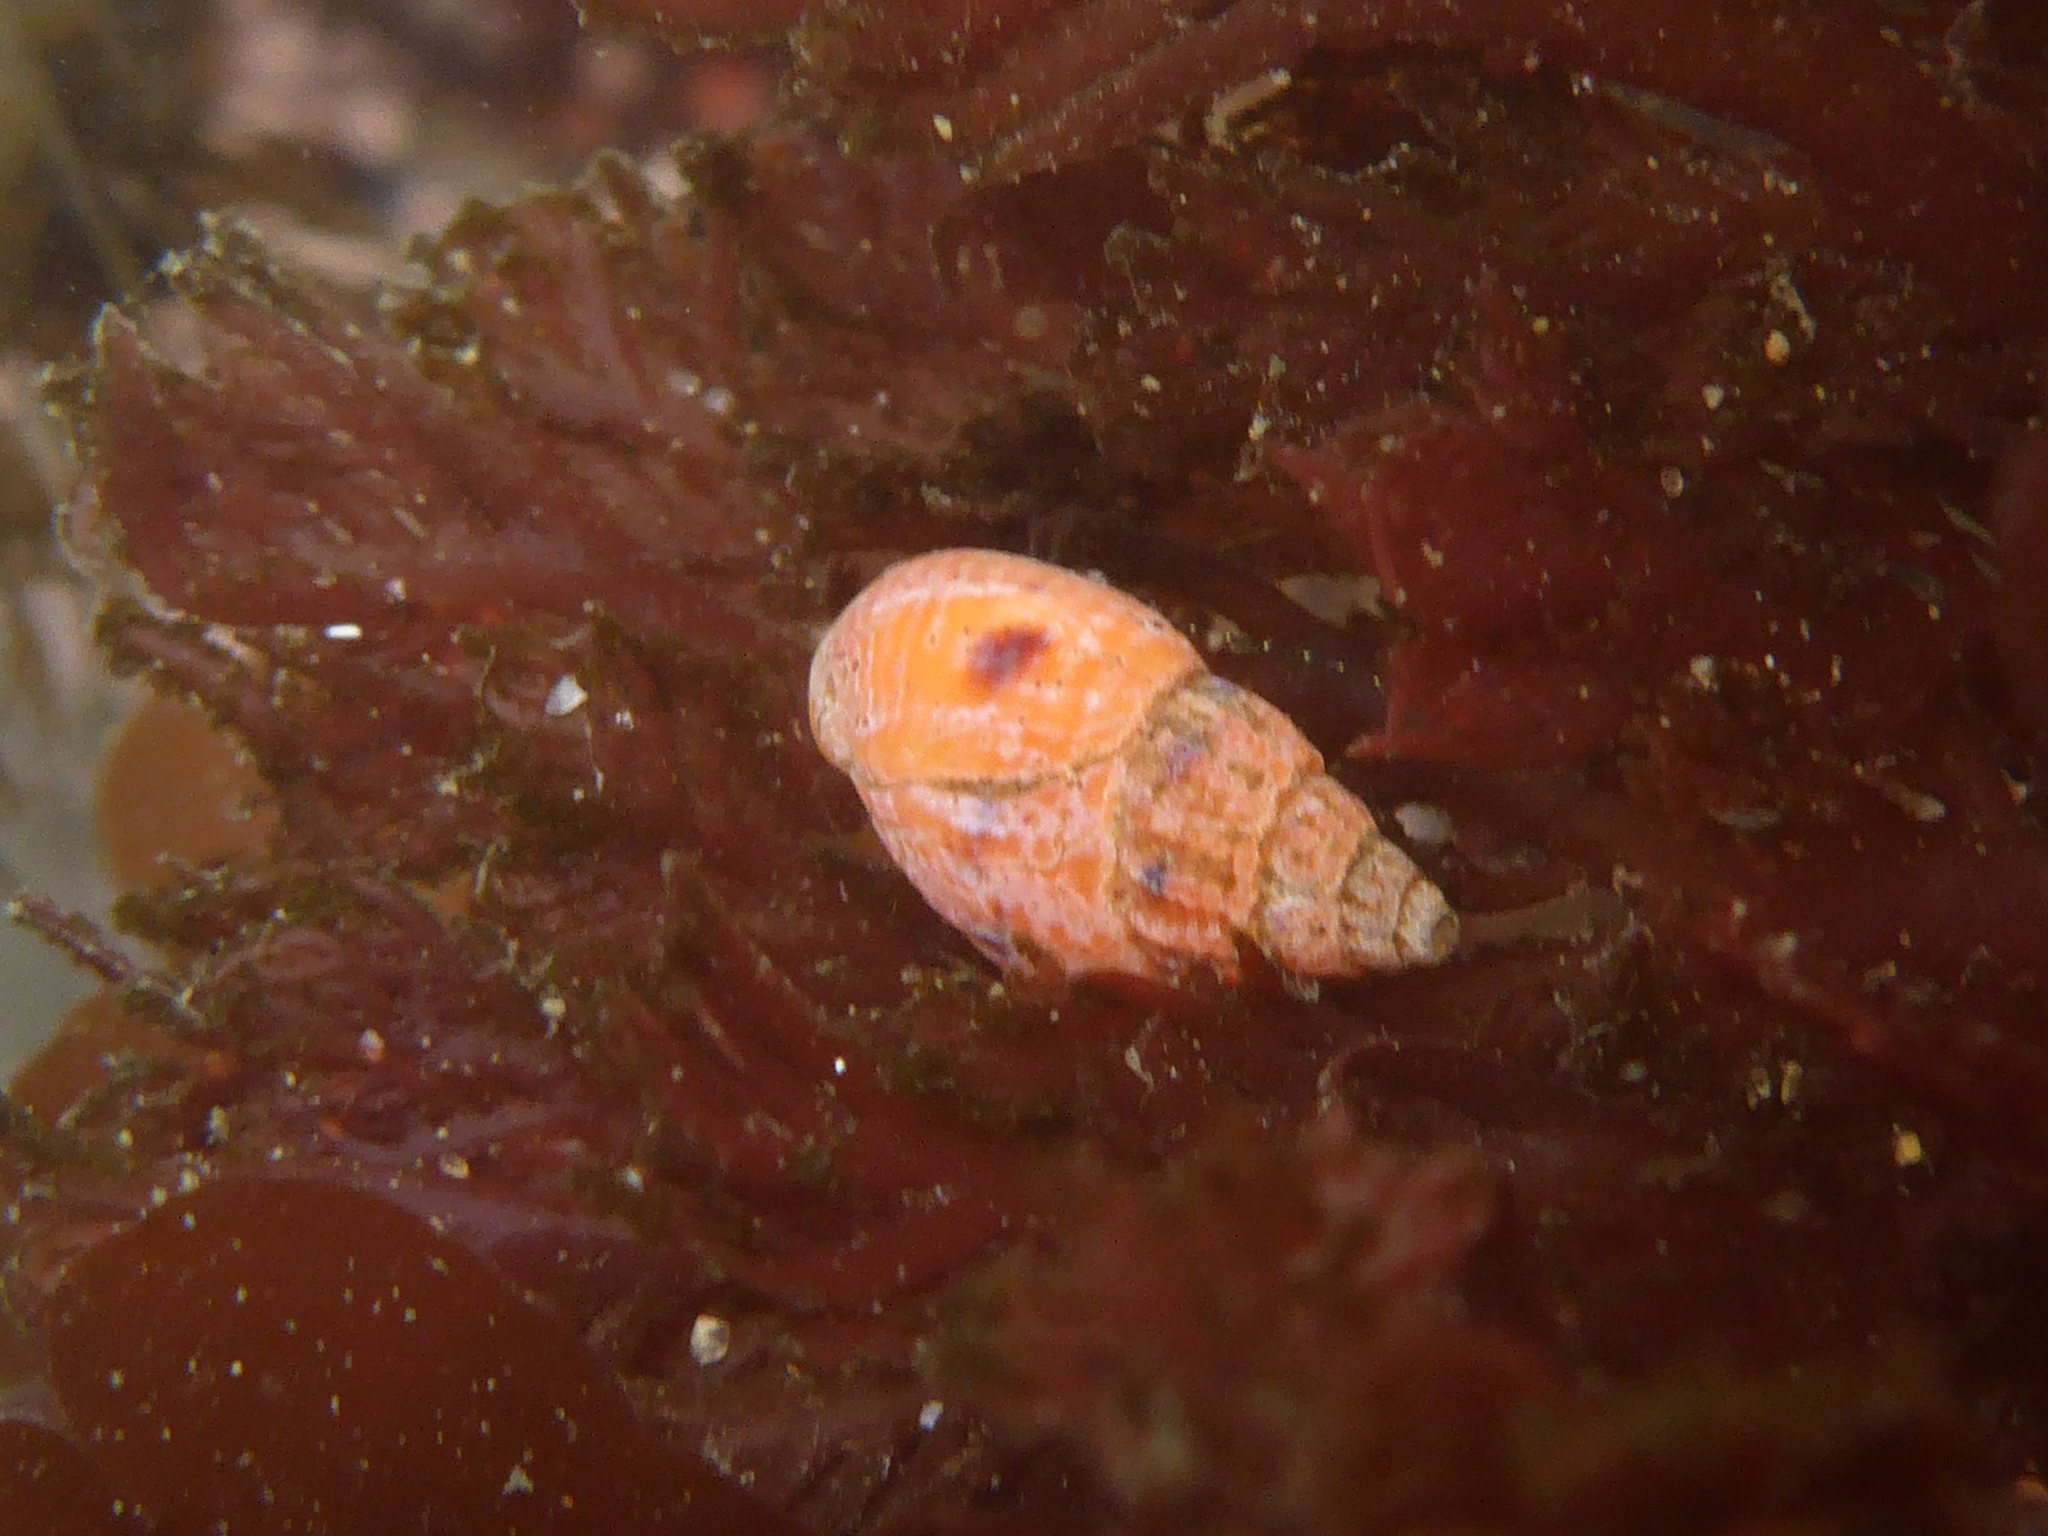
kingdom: Animalia
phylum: Mollusca
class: Gastropoda
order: Neogastropoda
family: Columbellidae
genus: Amphissa
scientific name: Amphissa versicolor
